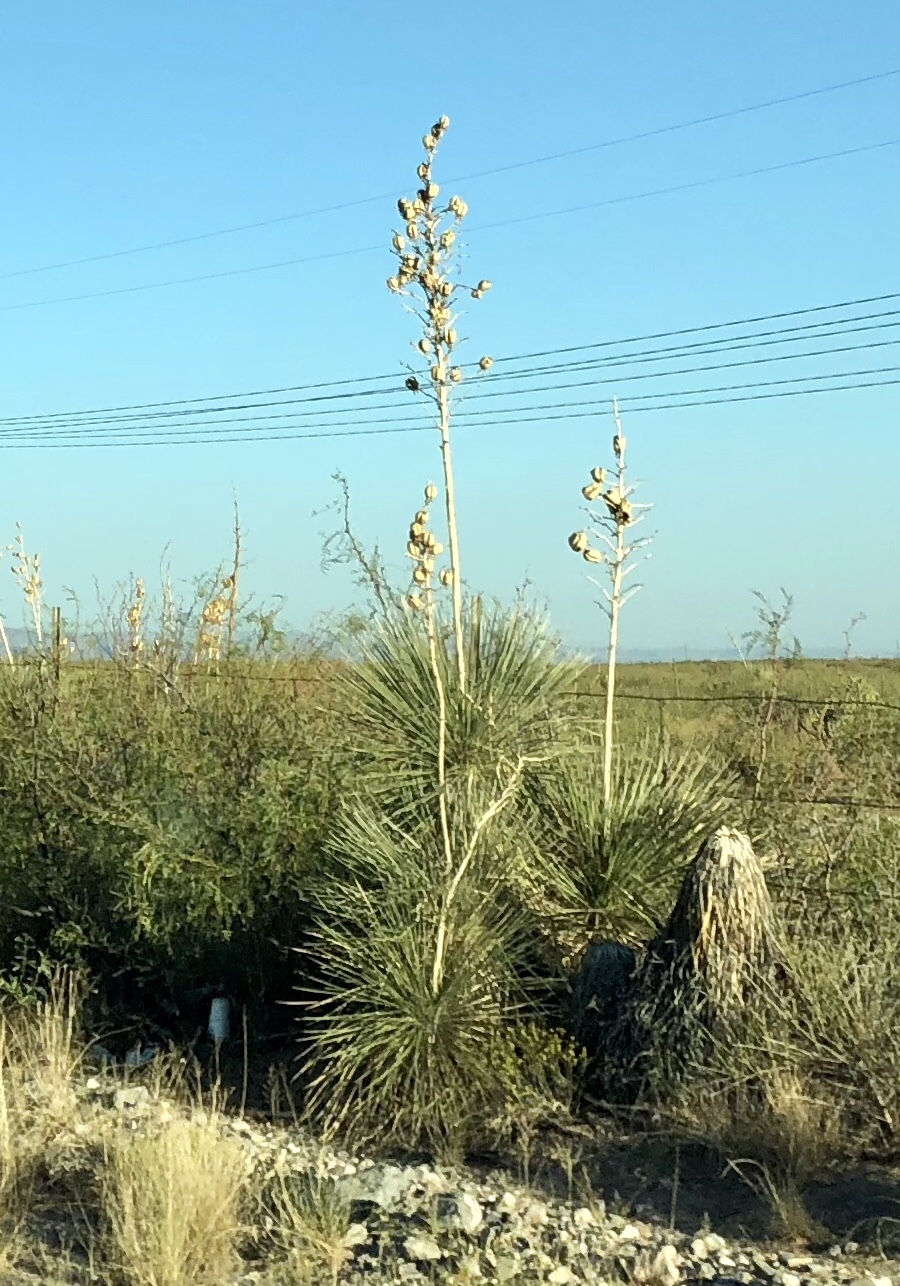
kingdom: Plantae
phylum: Tracheophyta
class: Liliopsida
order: Asparagales
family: Asparagaceae
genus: Yucca
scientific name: Yucca elata
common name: Palmella
